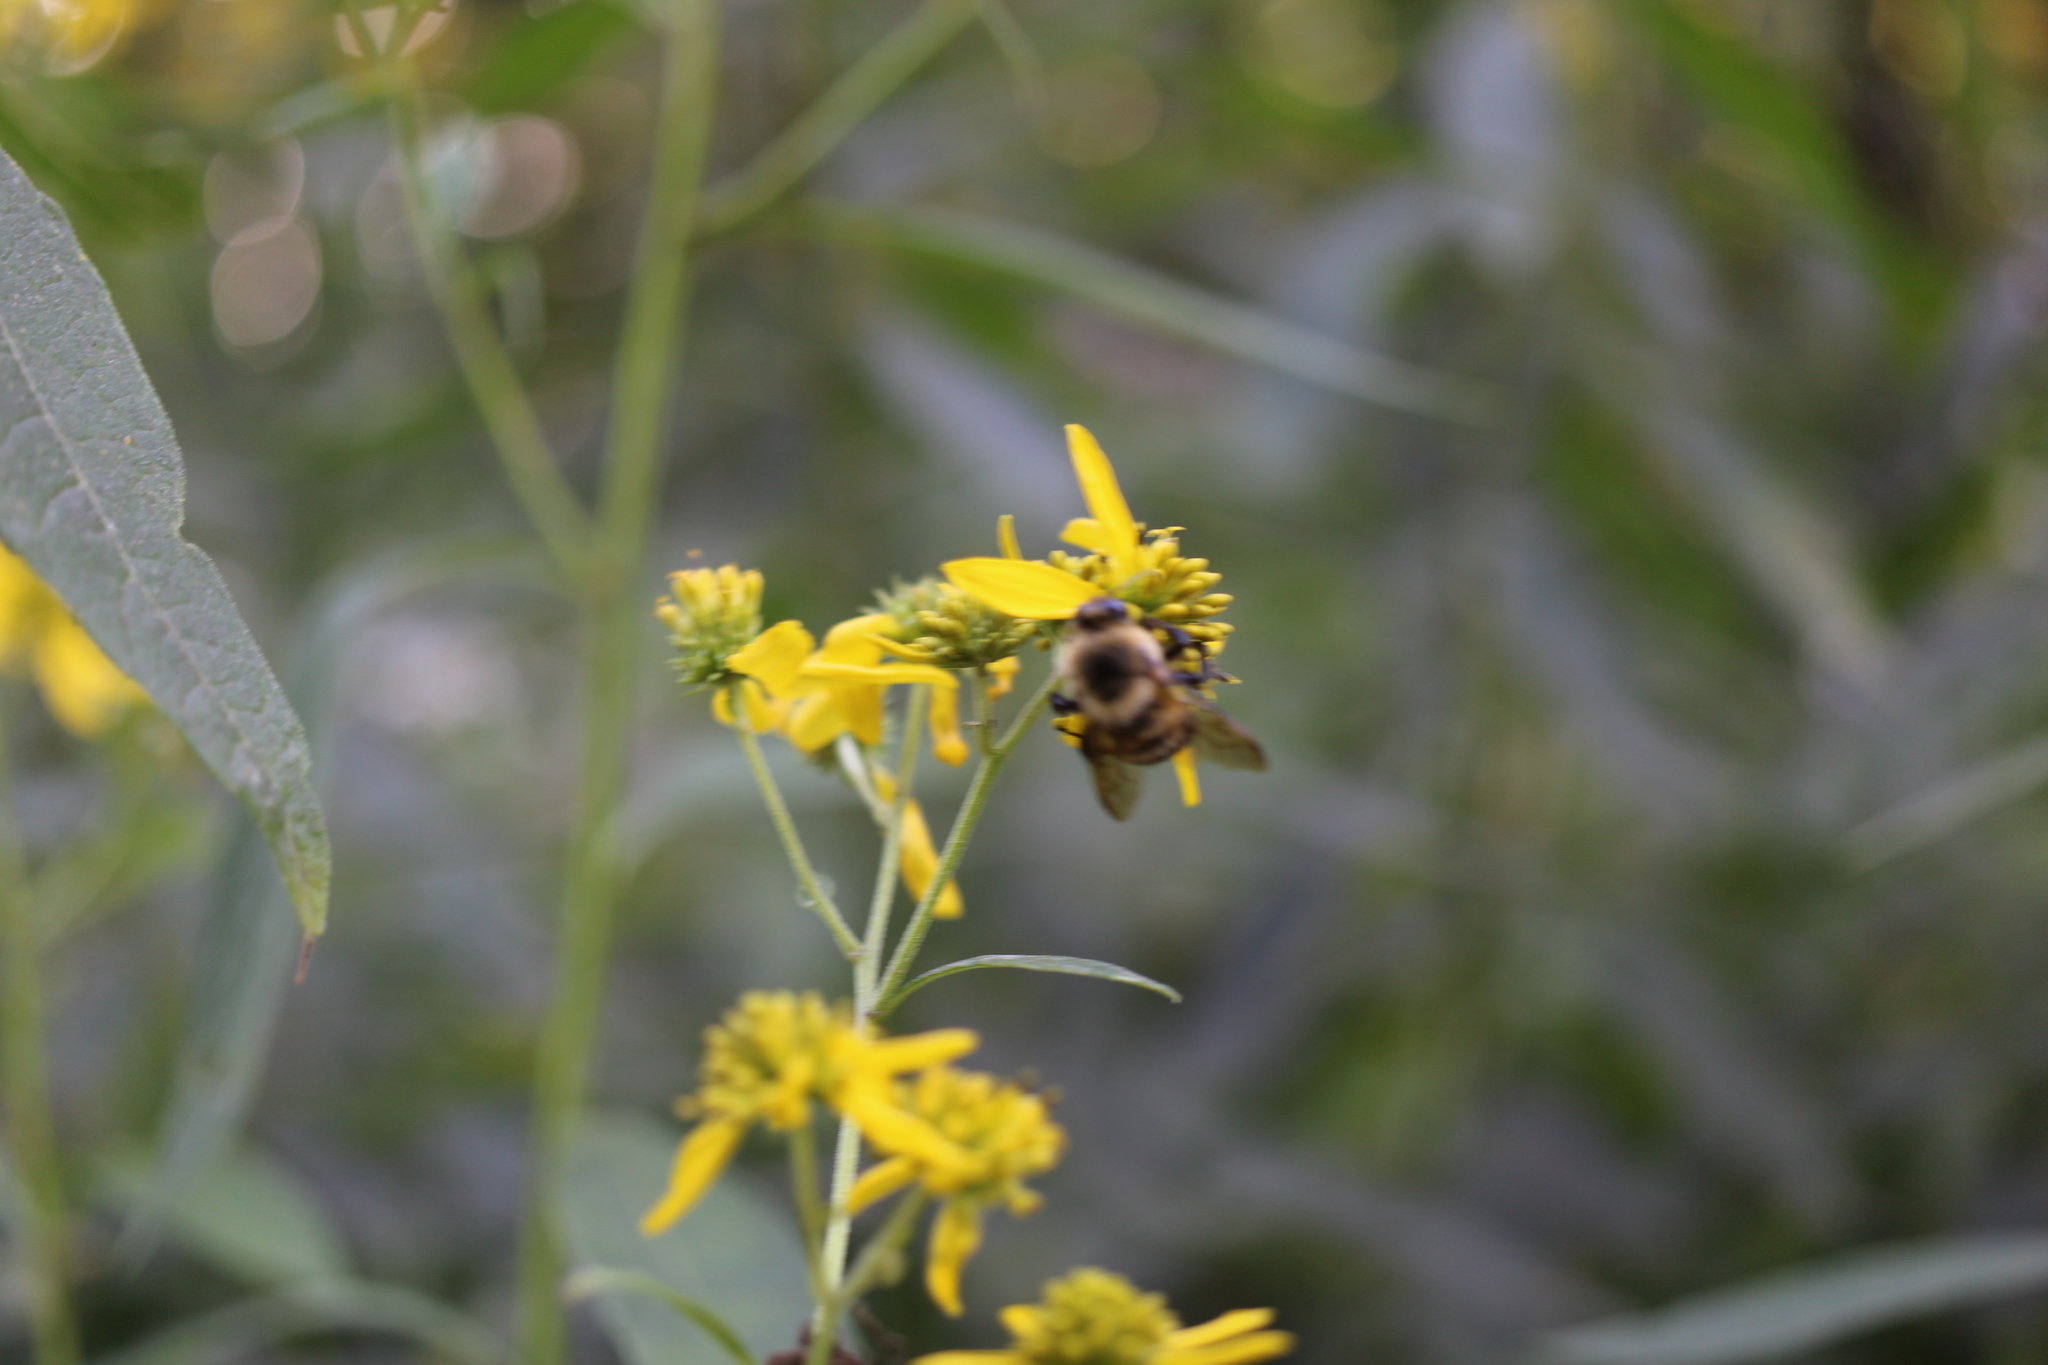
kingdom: Animalia
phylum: Arthropoda
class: Insecta
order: Hymenoptera
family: Apidae
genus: Bombus
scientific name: Bombus griseocollis
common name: Brown-belted bumble bee
